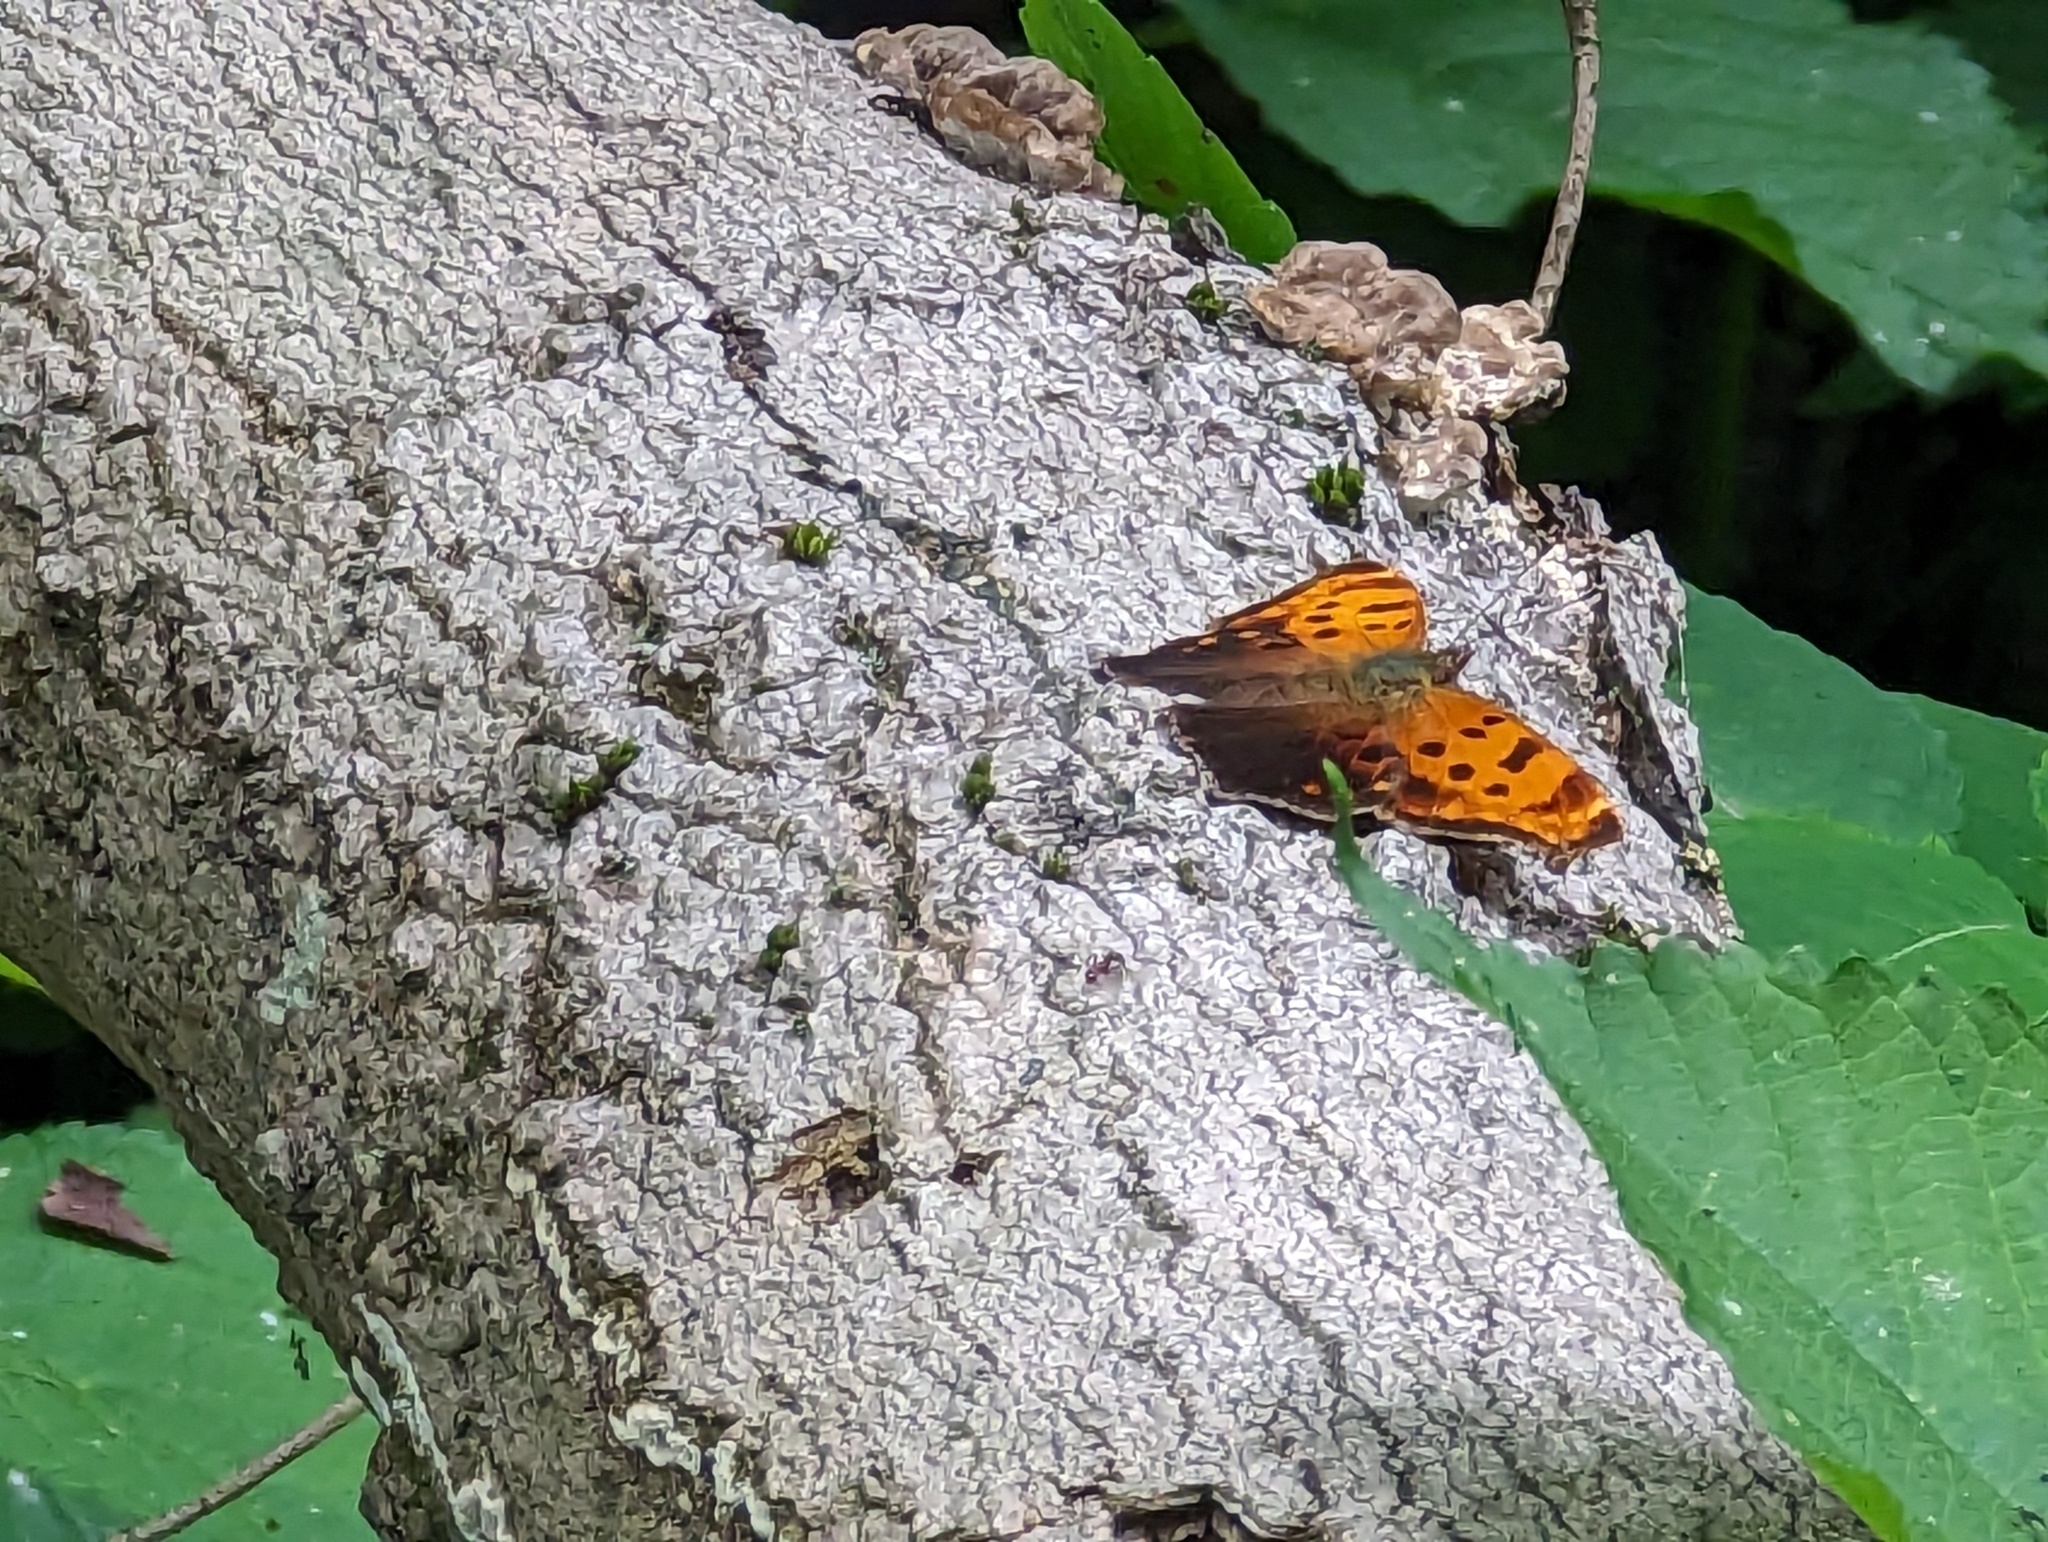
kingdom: Animalia
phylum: Arthropoda
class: Insecta
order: Lepidoptera
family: Nymphalidae
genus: Polygonia
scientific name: Polygonia comma
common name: Eastern comma
